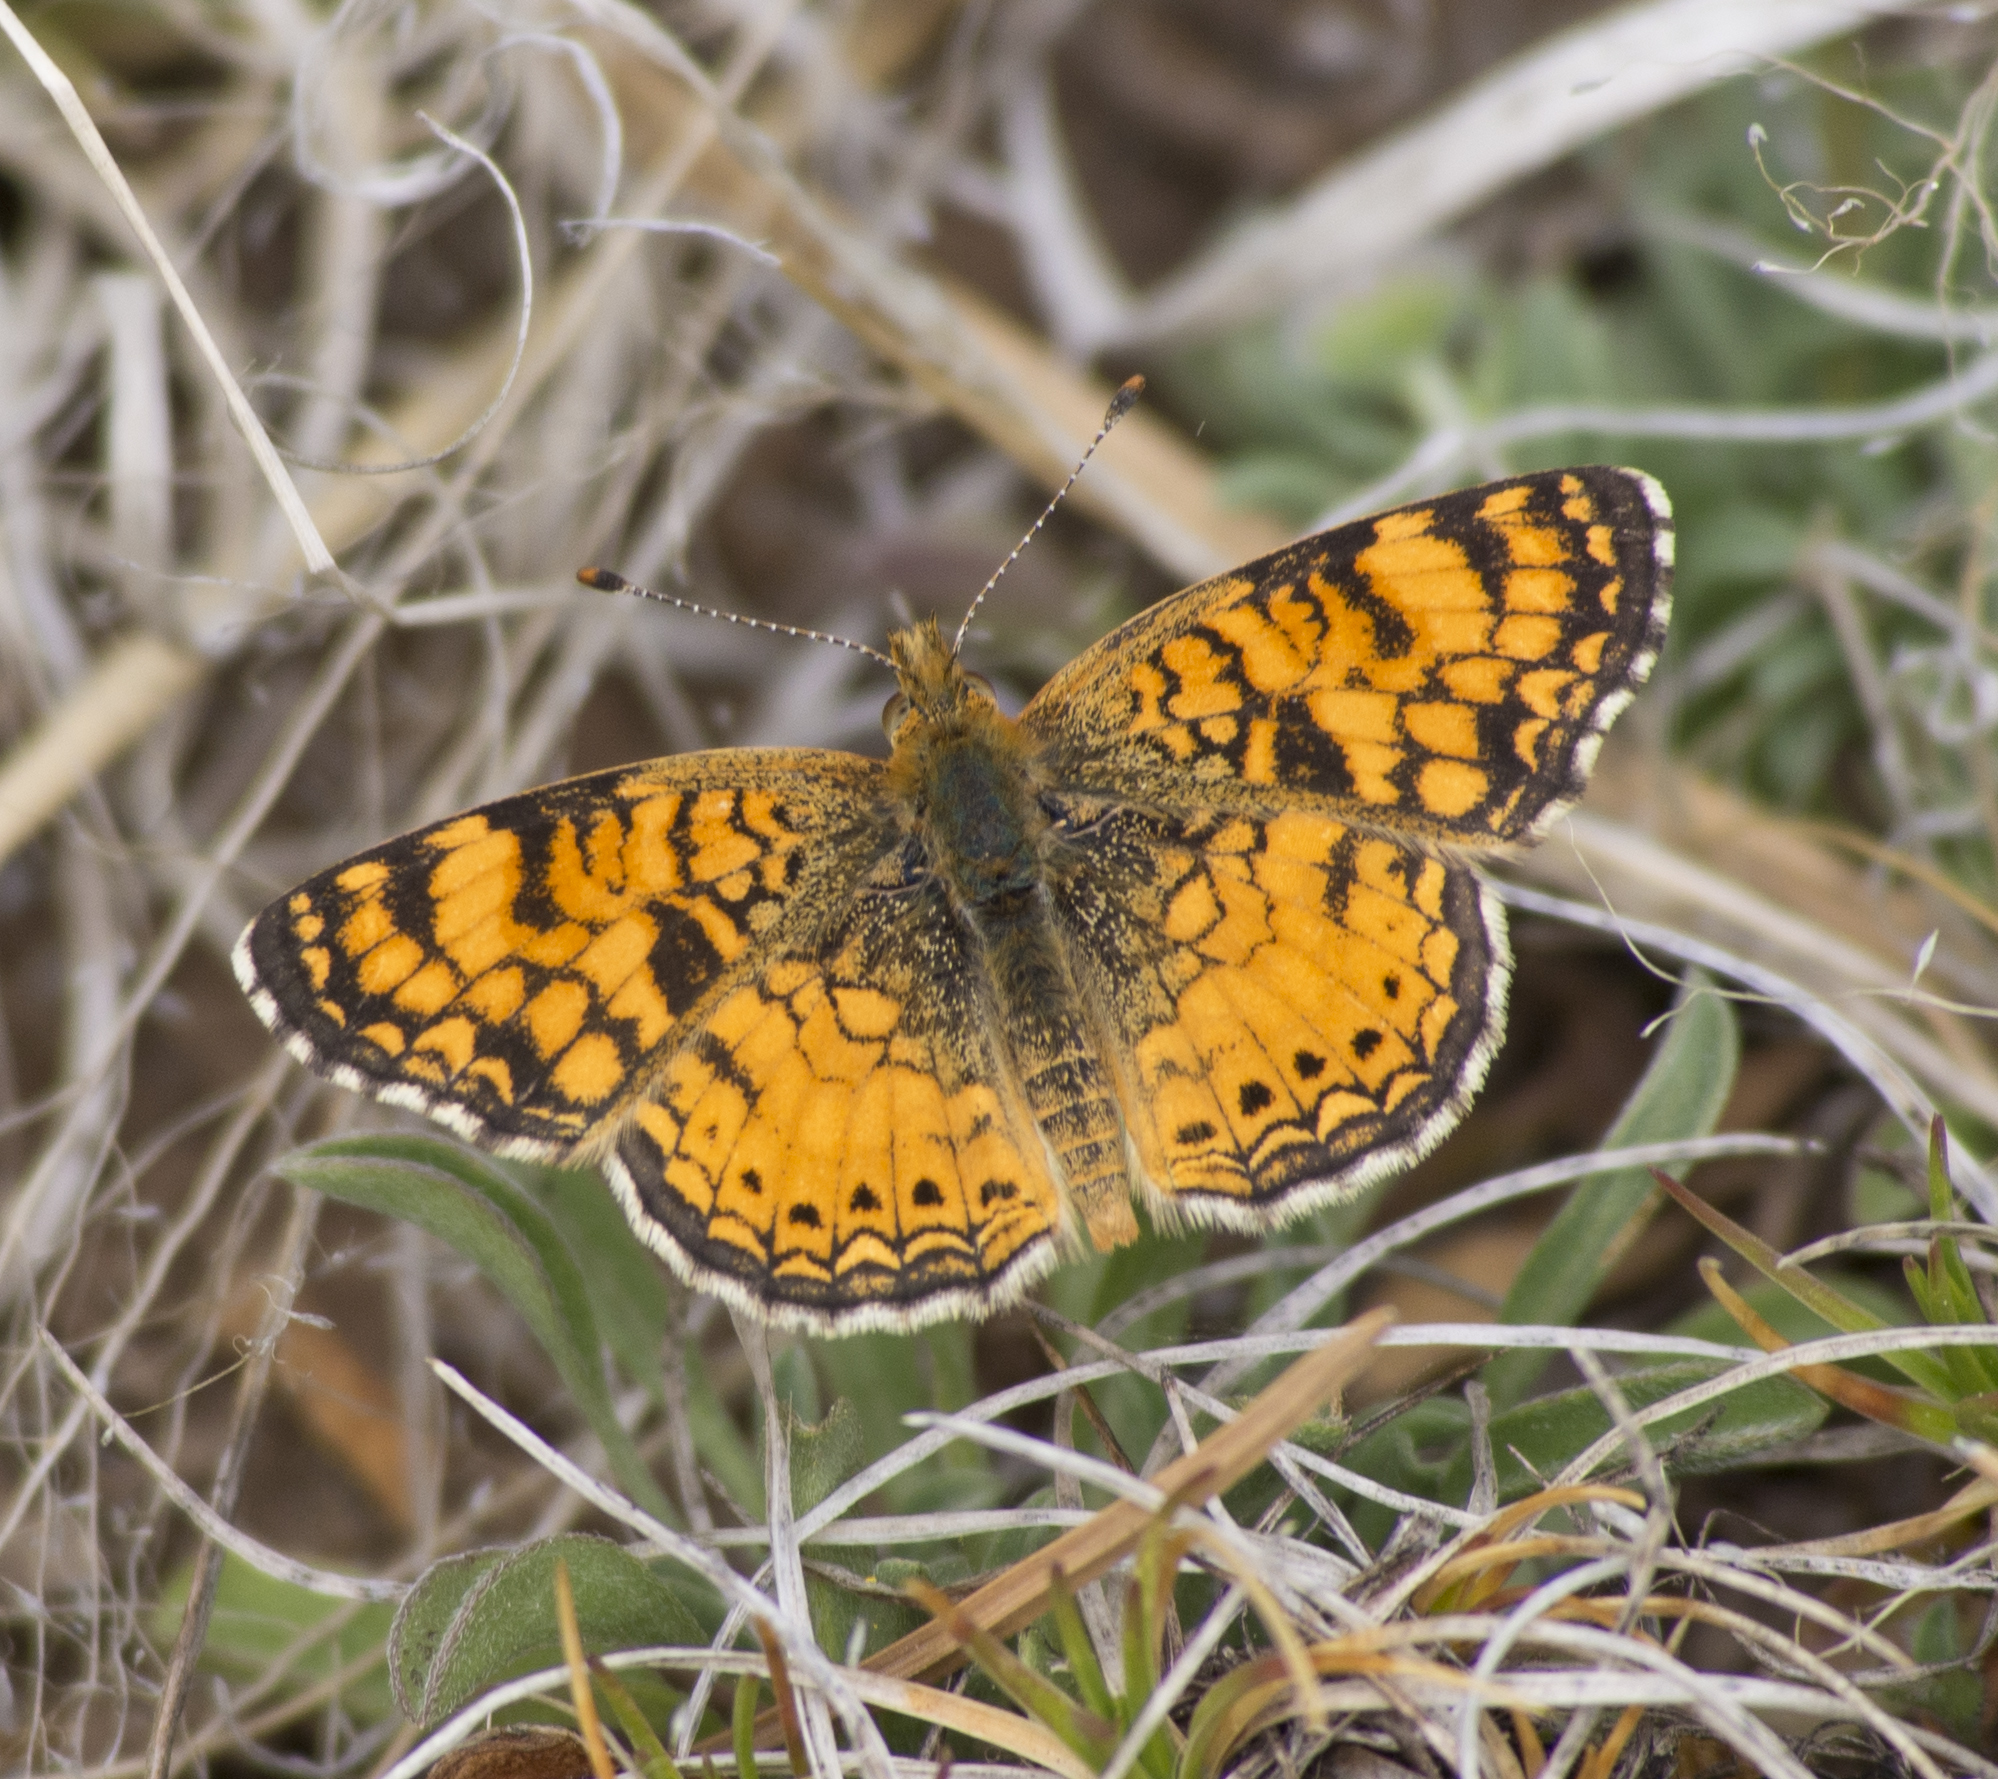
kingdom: Animalia
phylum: Arthropoda
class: Insecta
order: Lepidoptera
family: Nymphalidae
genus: Eresia
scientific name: Eresia aveyrona
